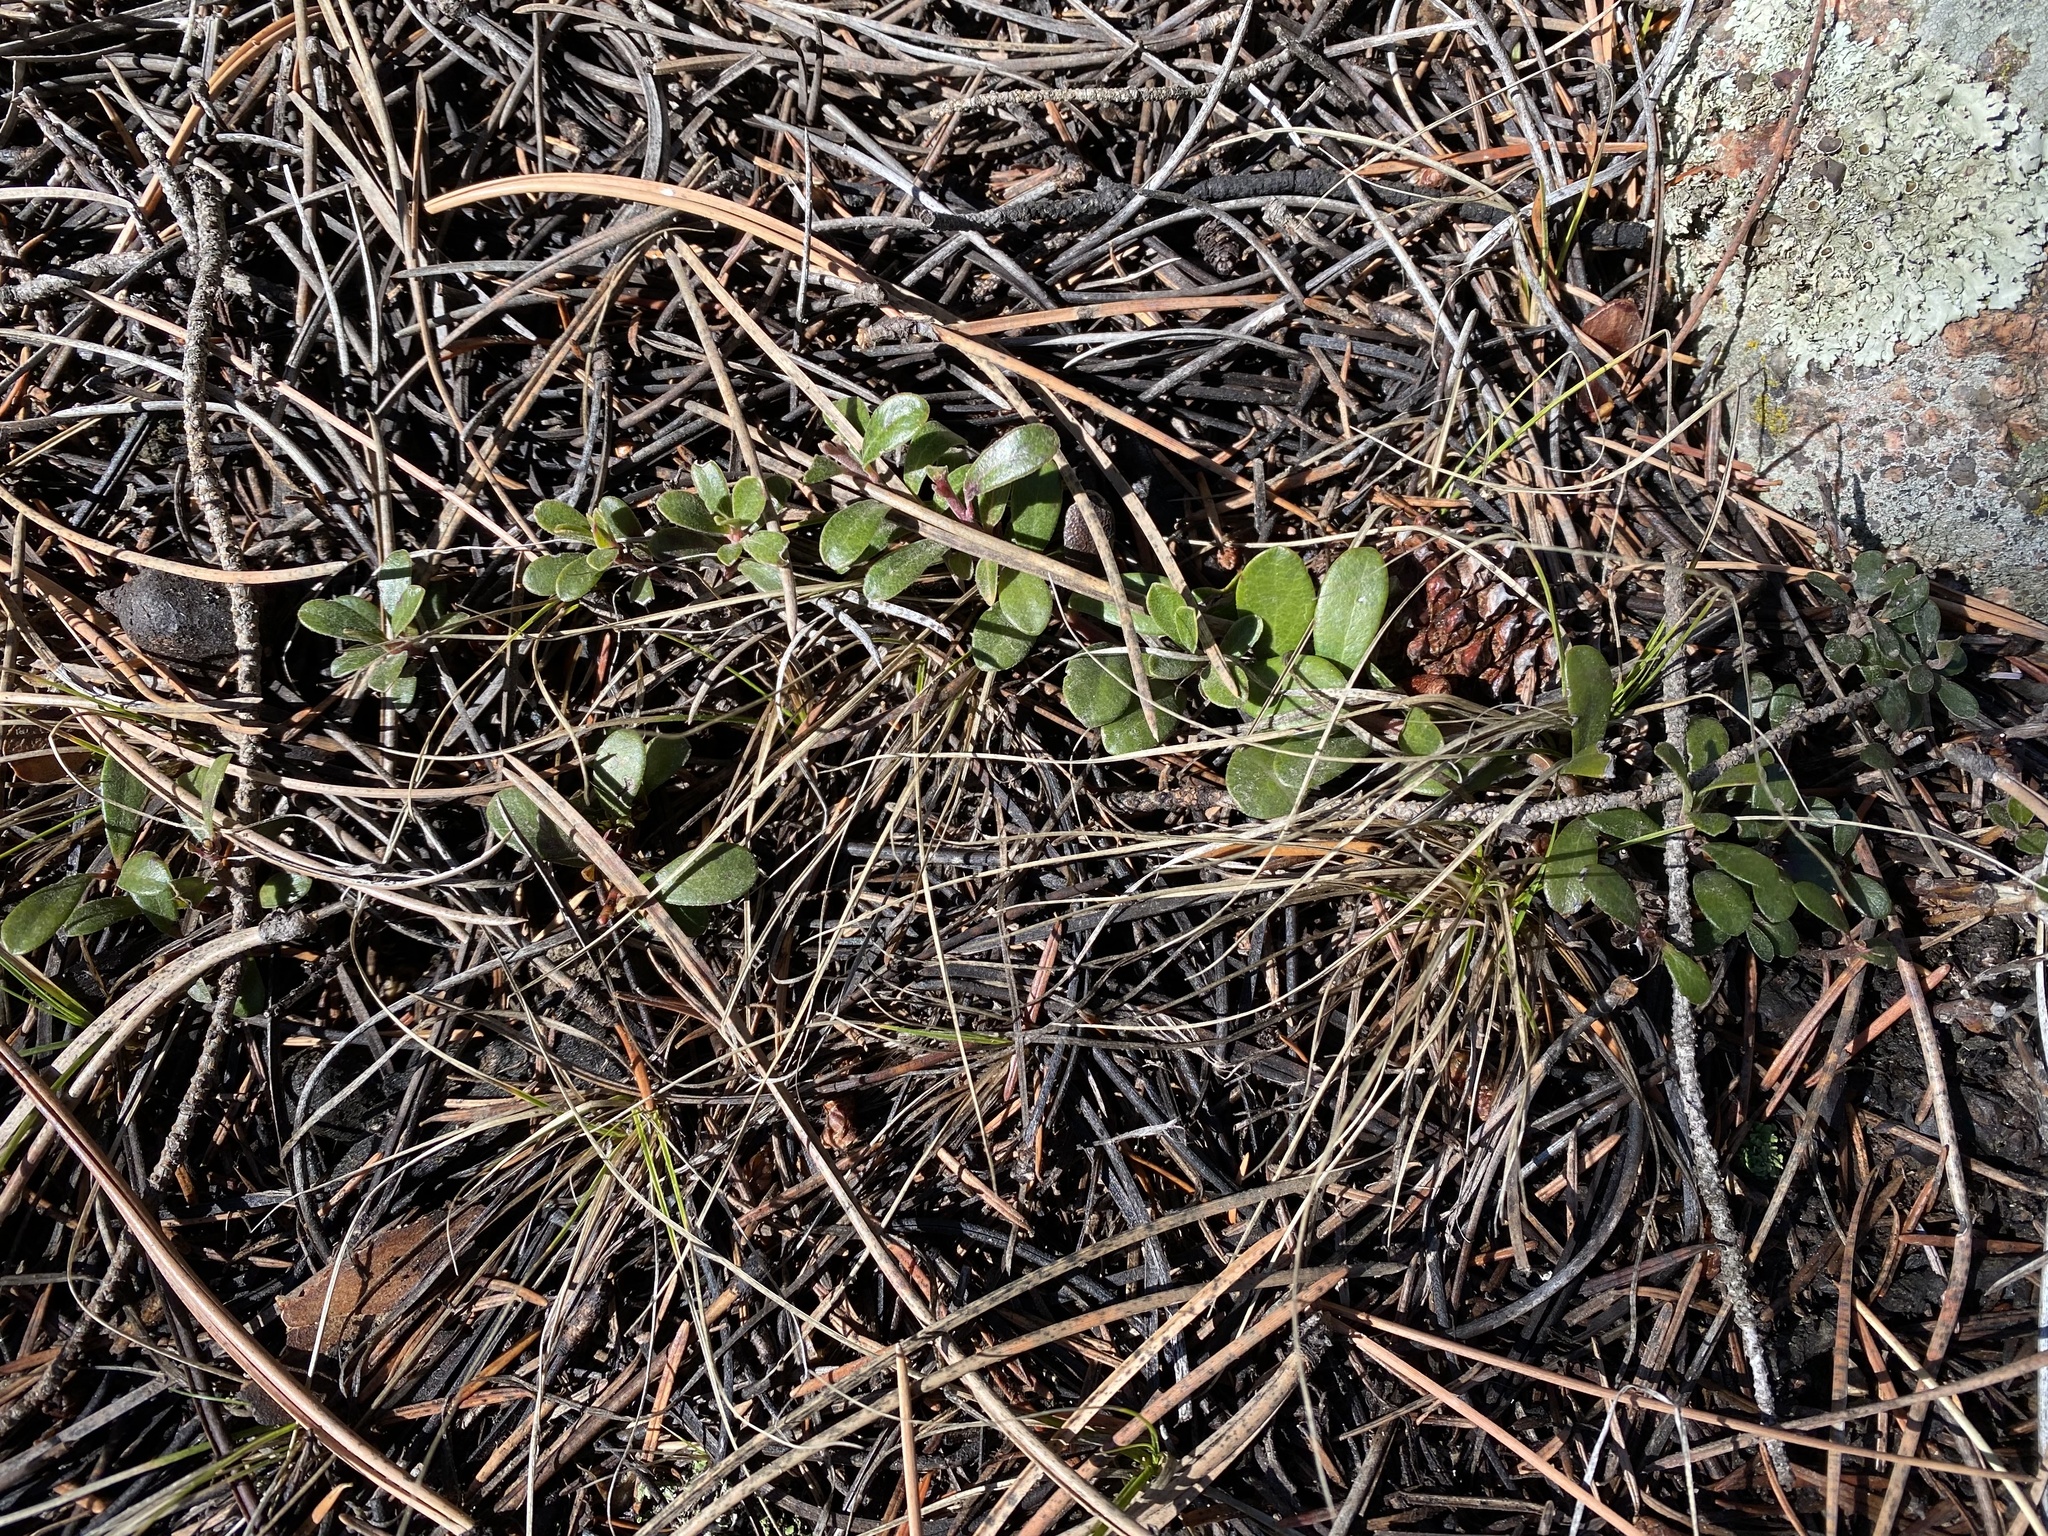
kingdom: Plantae
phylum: Tracheophyta
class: Magnoliopsida
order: Ericales
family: Ericaceae
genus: Arctostaphylos
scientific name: Arctostaphylos uva-ursi
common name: Bearberry
